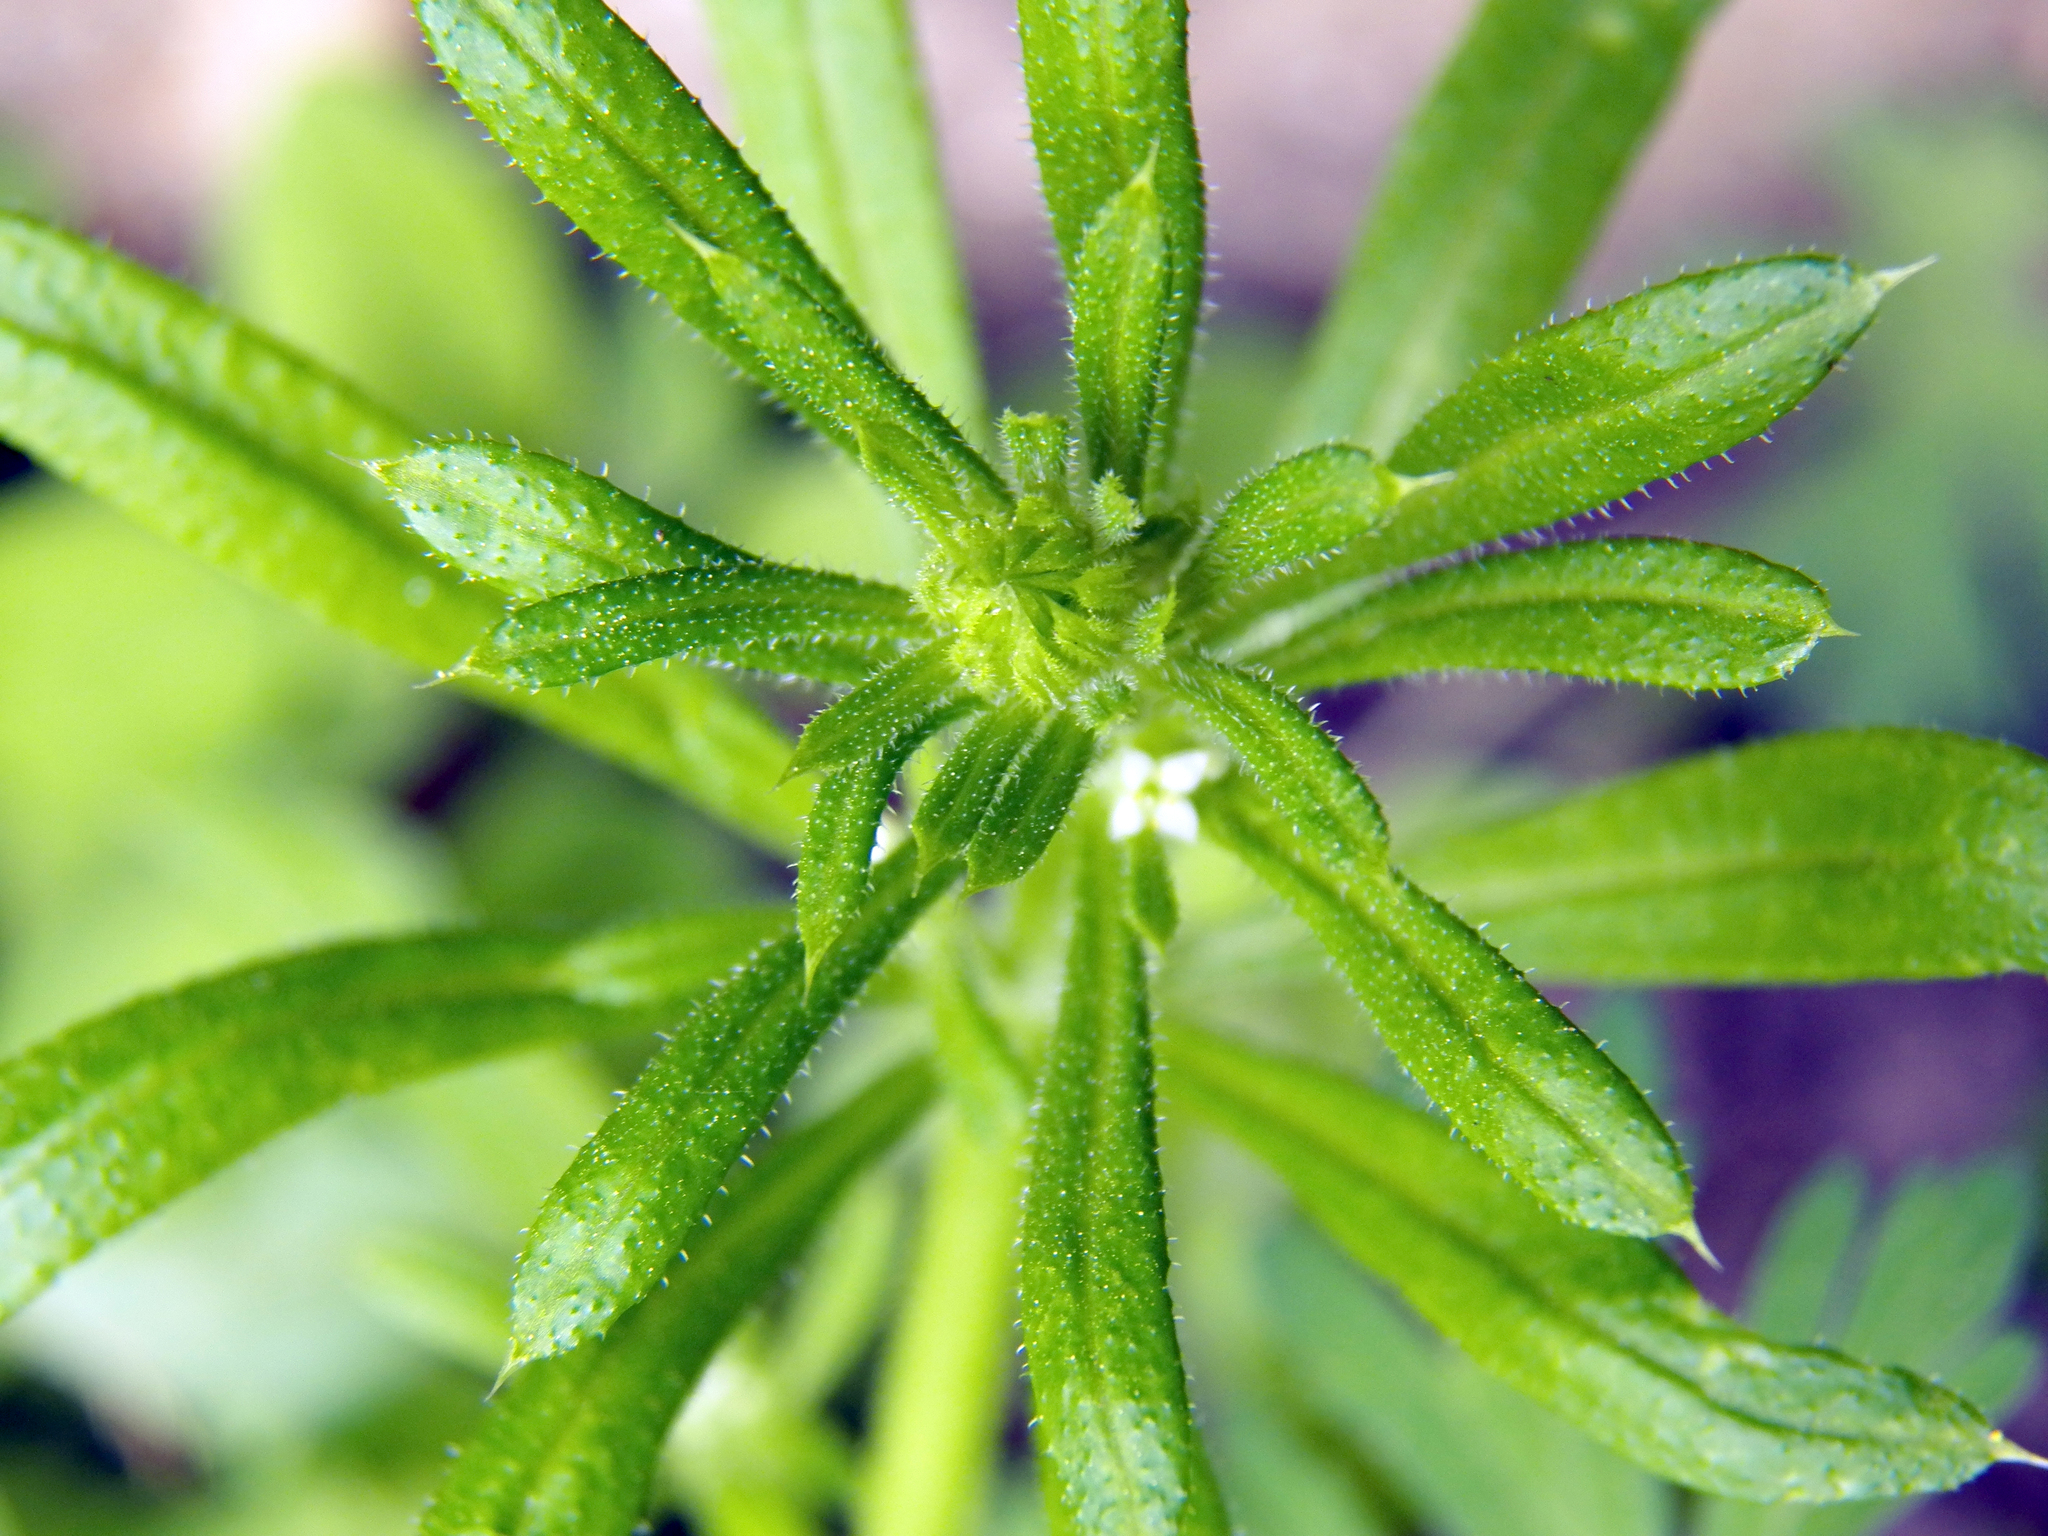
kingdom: Plantae
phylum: Tracheophyta
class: Magnoliopsida
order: Gentianales
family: Rubiaceae
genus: Galium
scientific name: Galium aparine
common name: Cleavers
